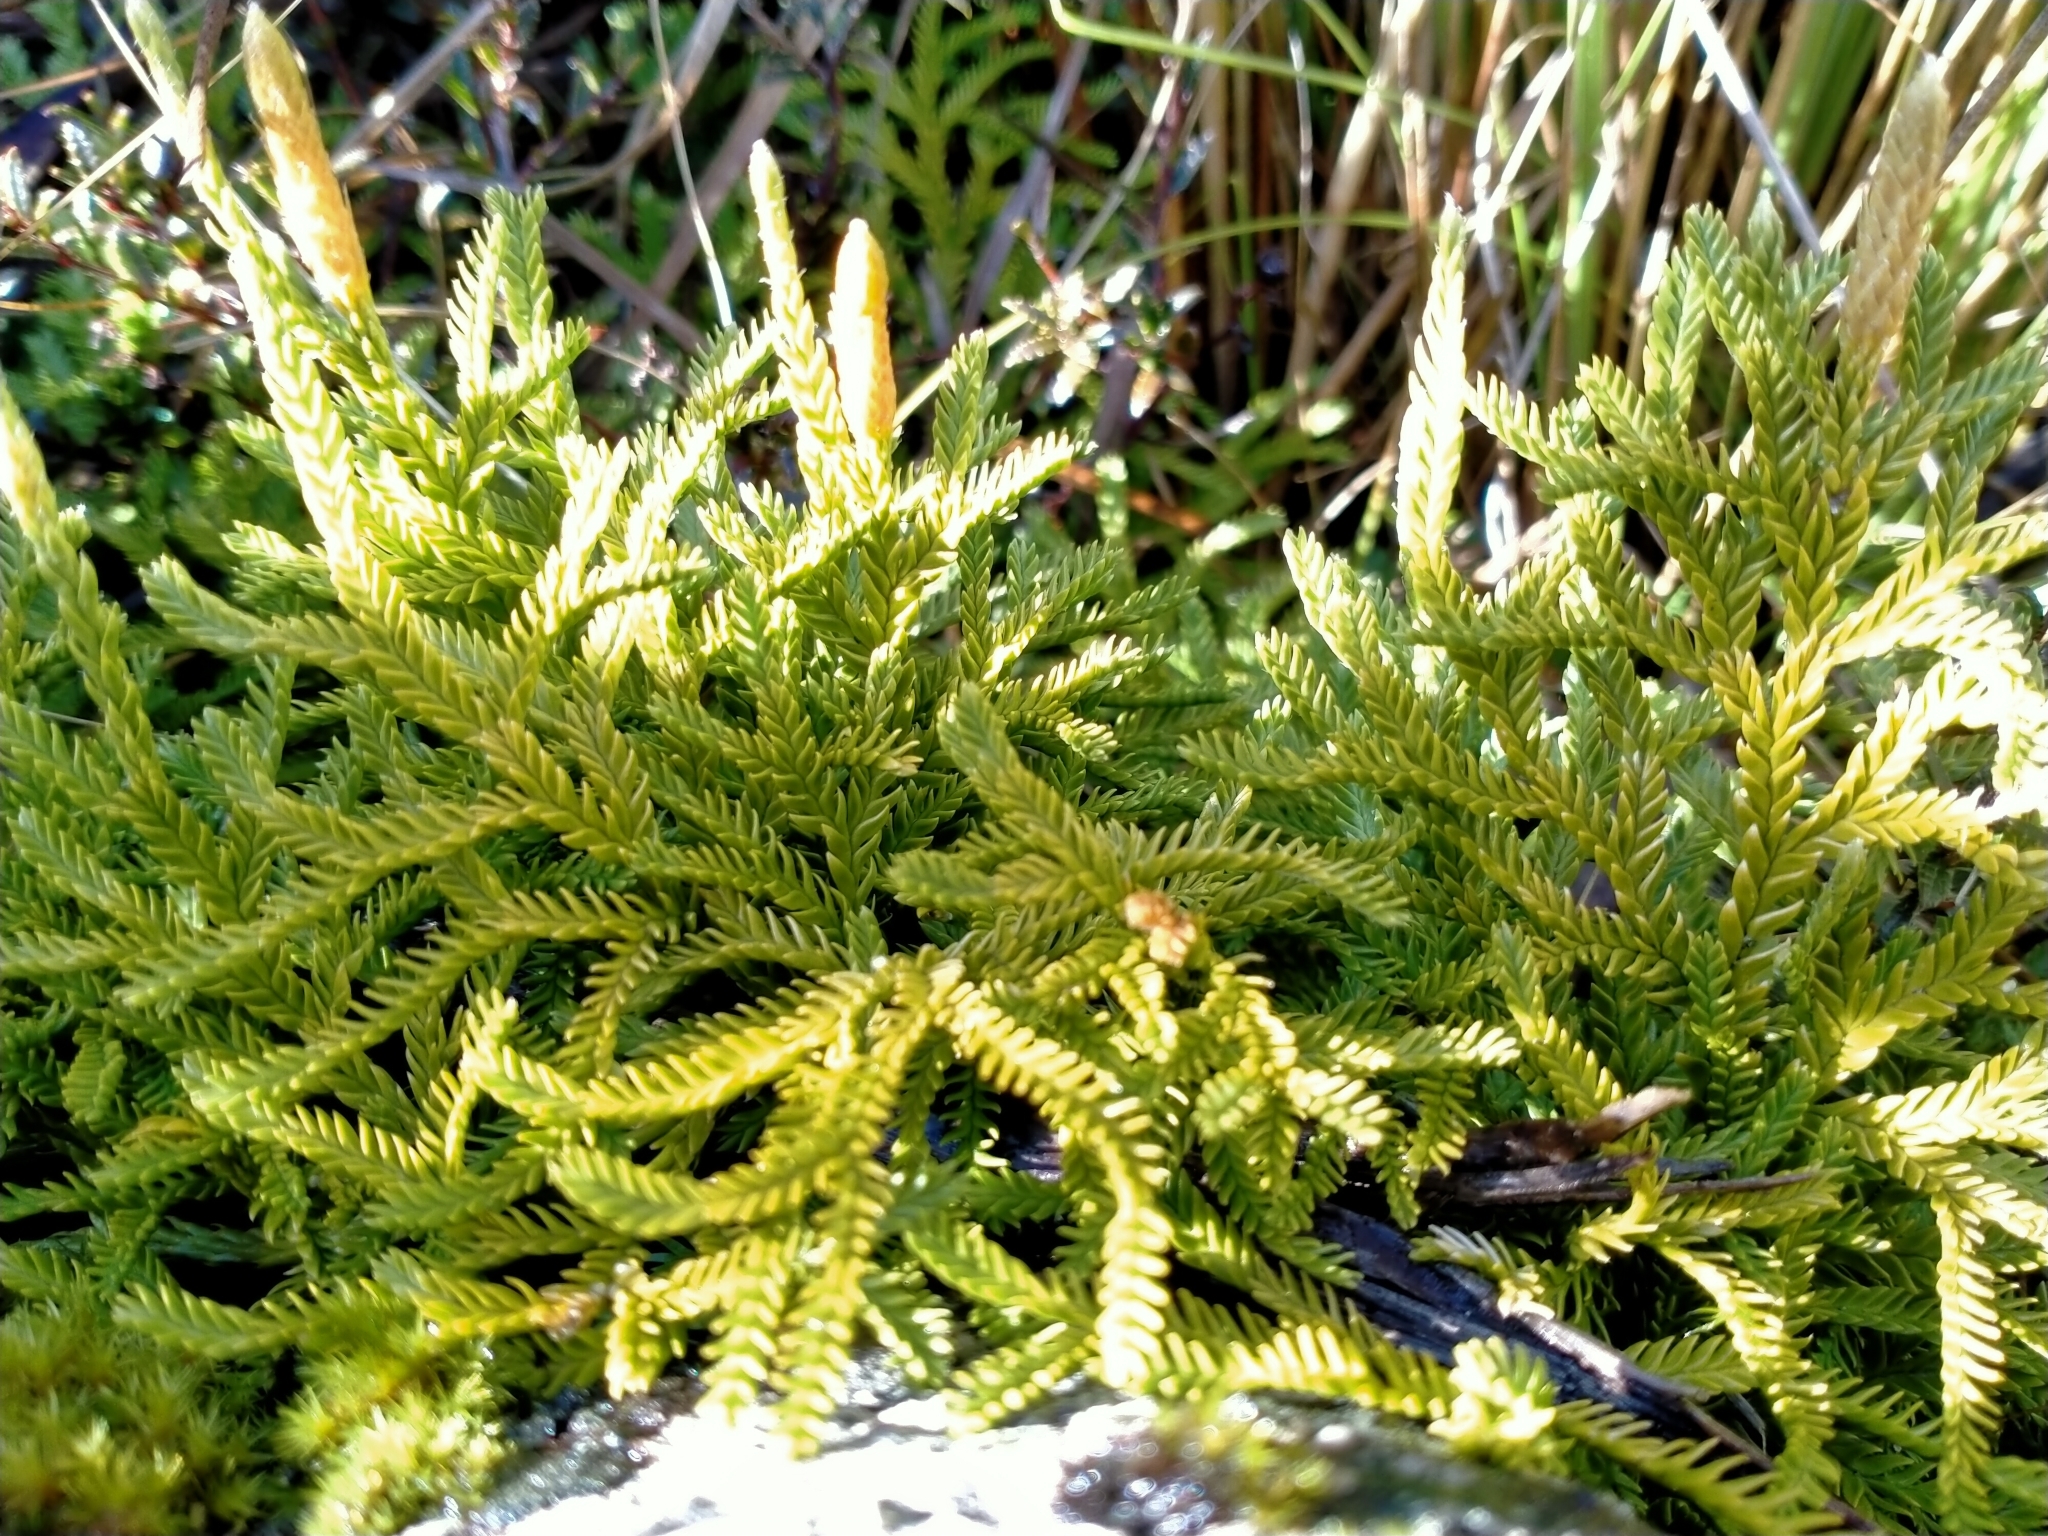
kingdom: Plantae
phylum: Tracheophyta
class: Lycopodiopsida
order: Lycopodiales
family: Lycopodiaceae
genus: Diphasium
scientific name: Diphasium scariosum
